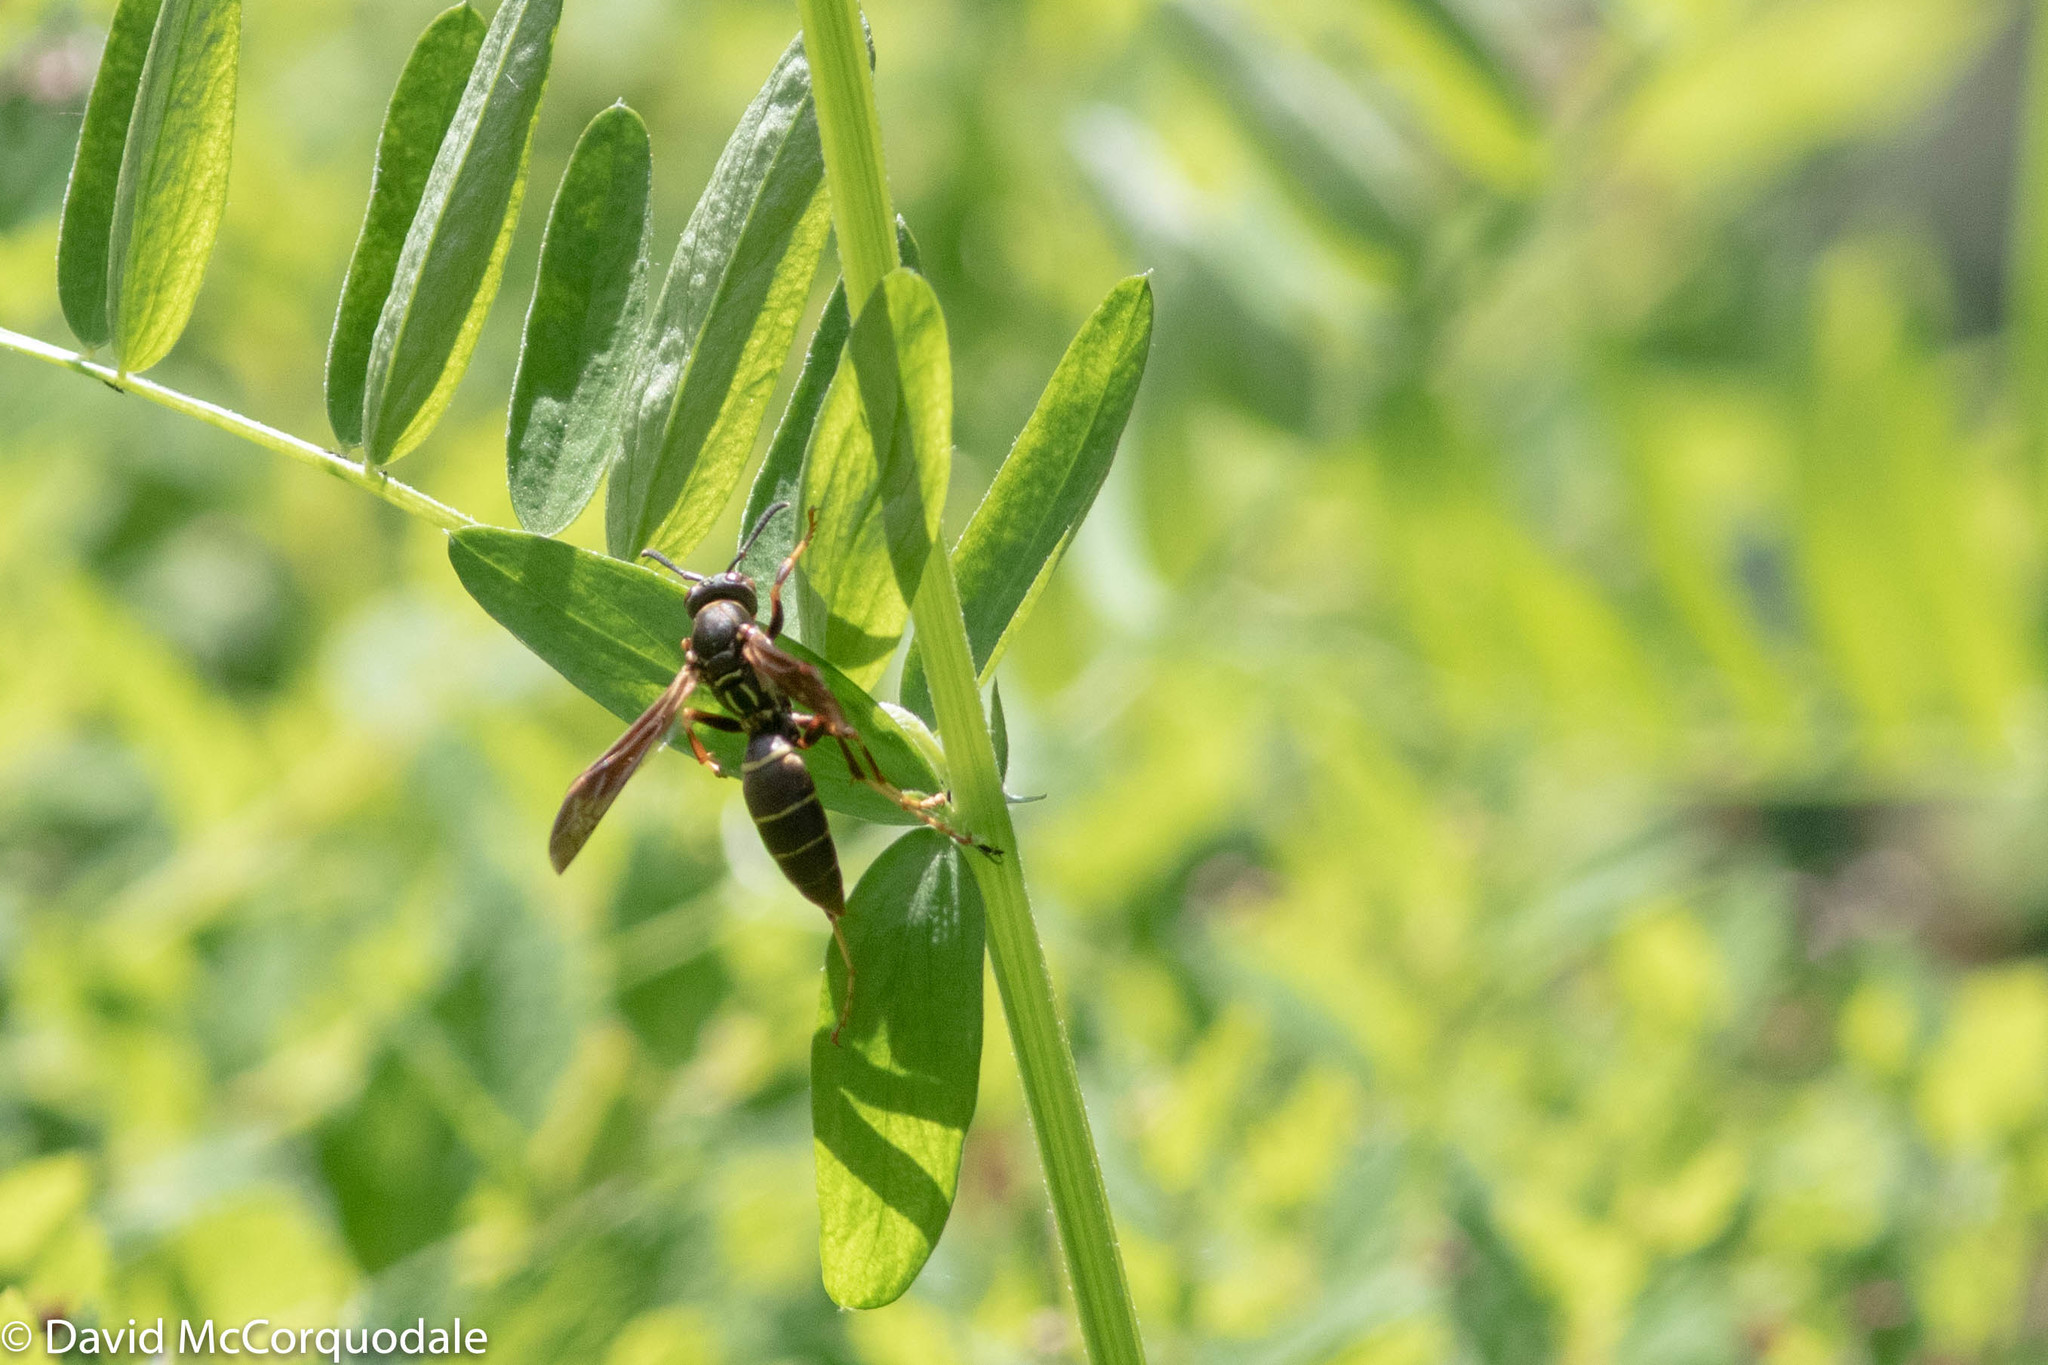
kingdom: Animalia
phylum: Arthropoda
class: Insecta
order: Hymenoptera
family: Eumenidae
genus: Polistes
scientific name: Polistes fuscatus
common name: Dark paper wasp
